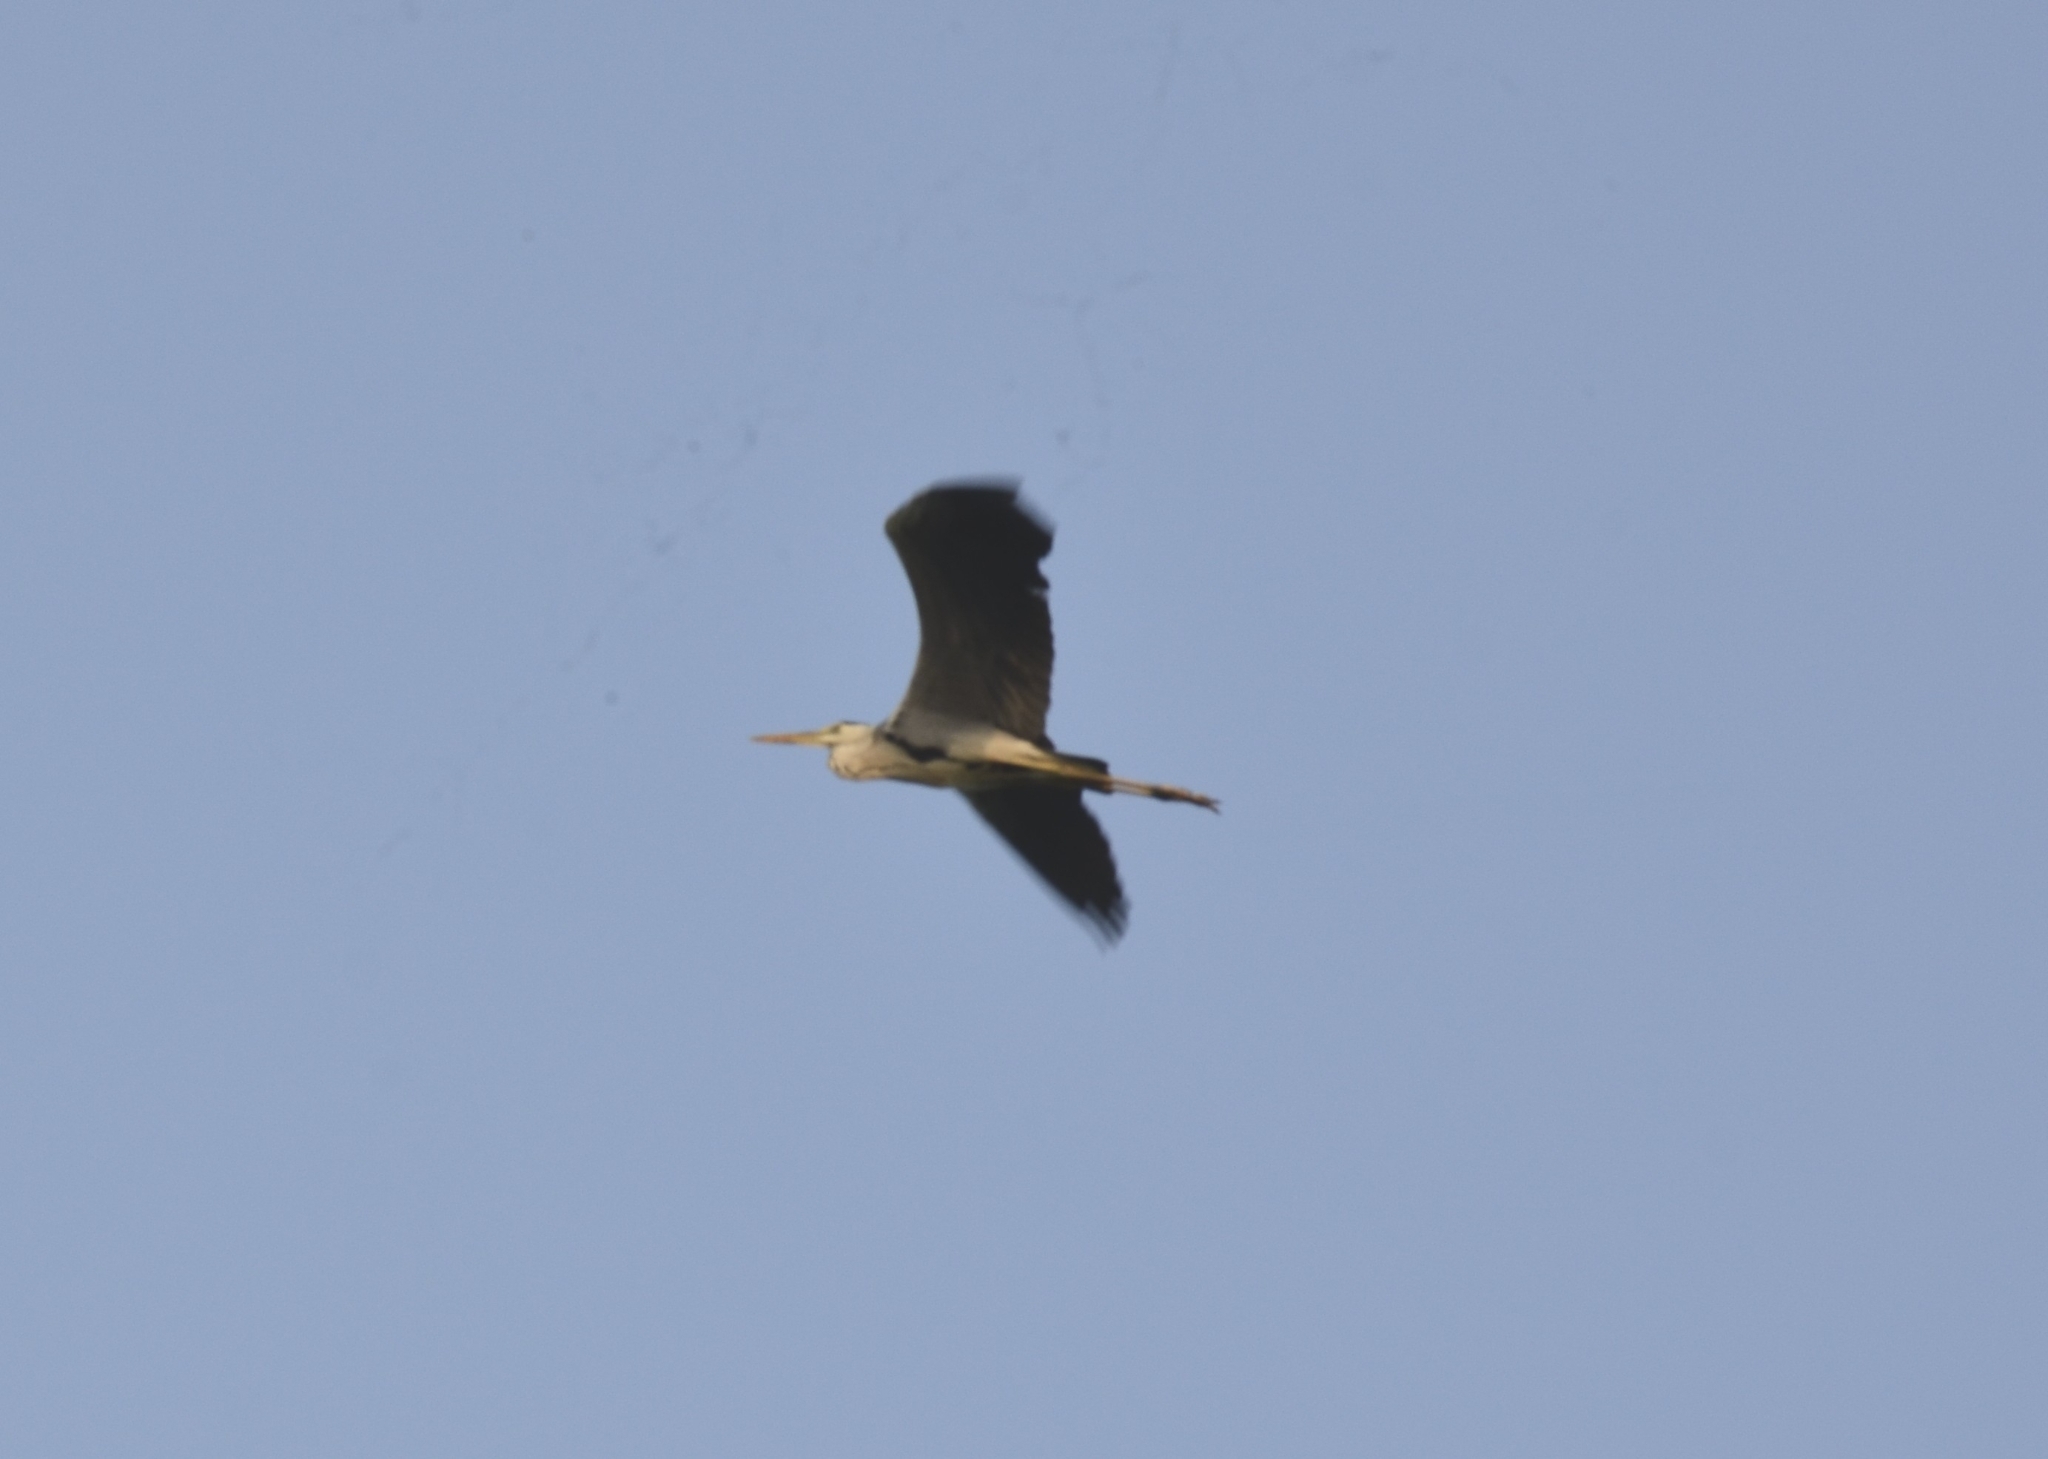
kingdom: Animalia
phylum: Chordata
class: Aves
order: Pelecaniformes
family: Ardeidae
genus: Ardea
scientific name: Ardea cinerea
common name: Grey heron
